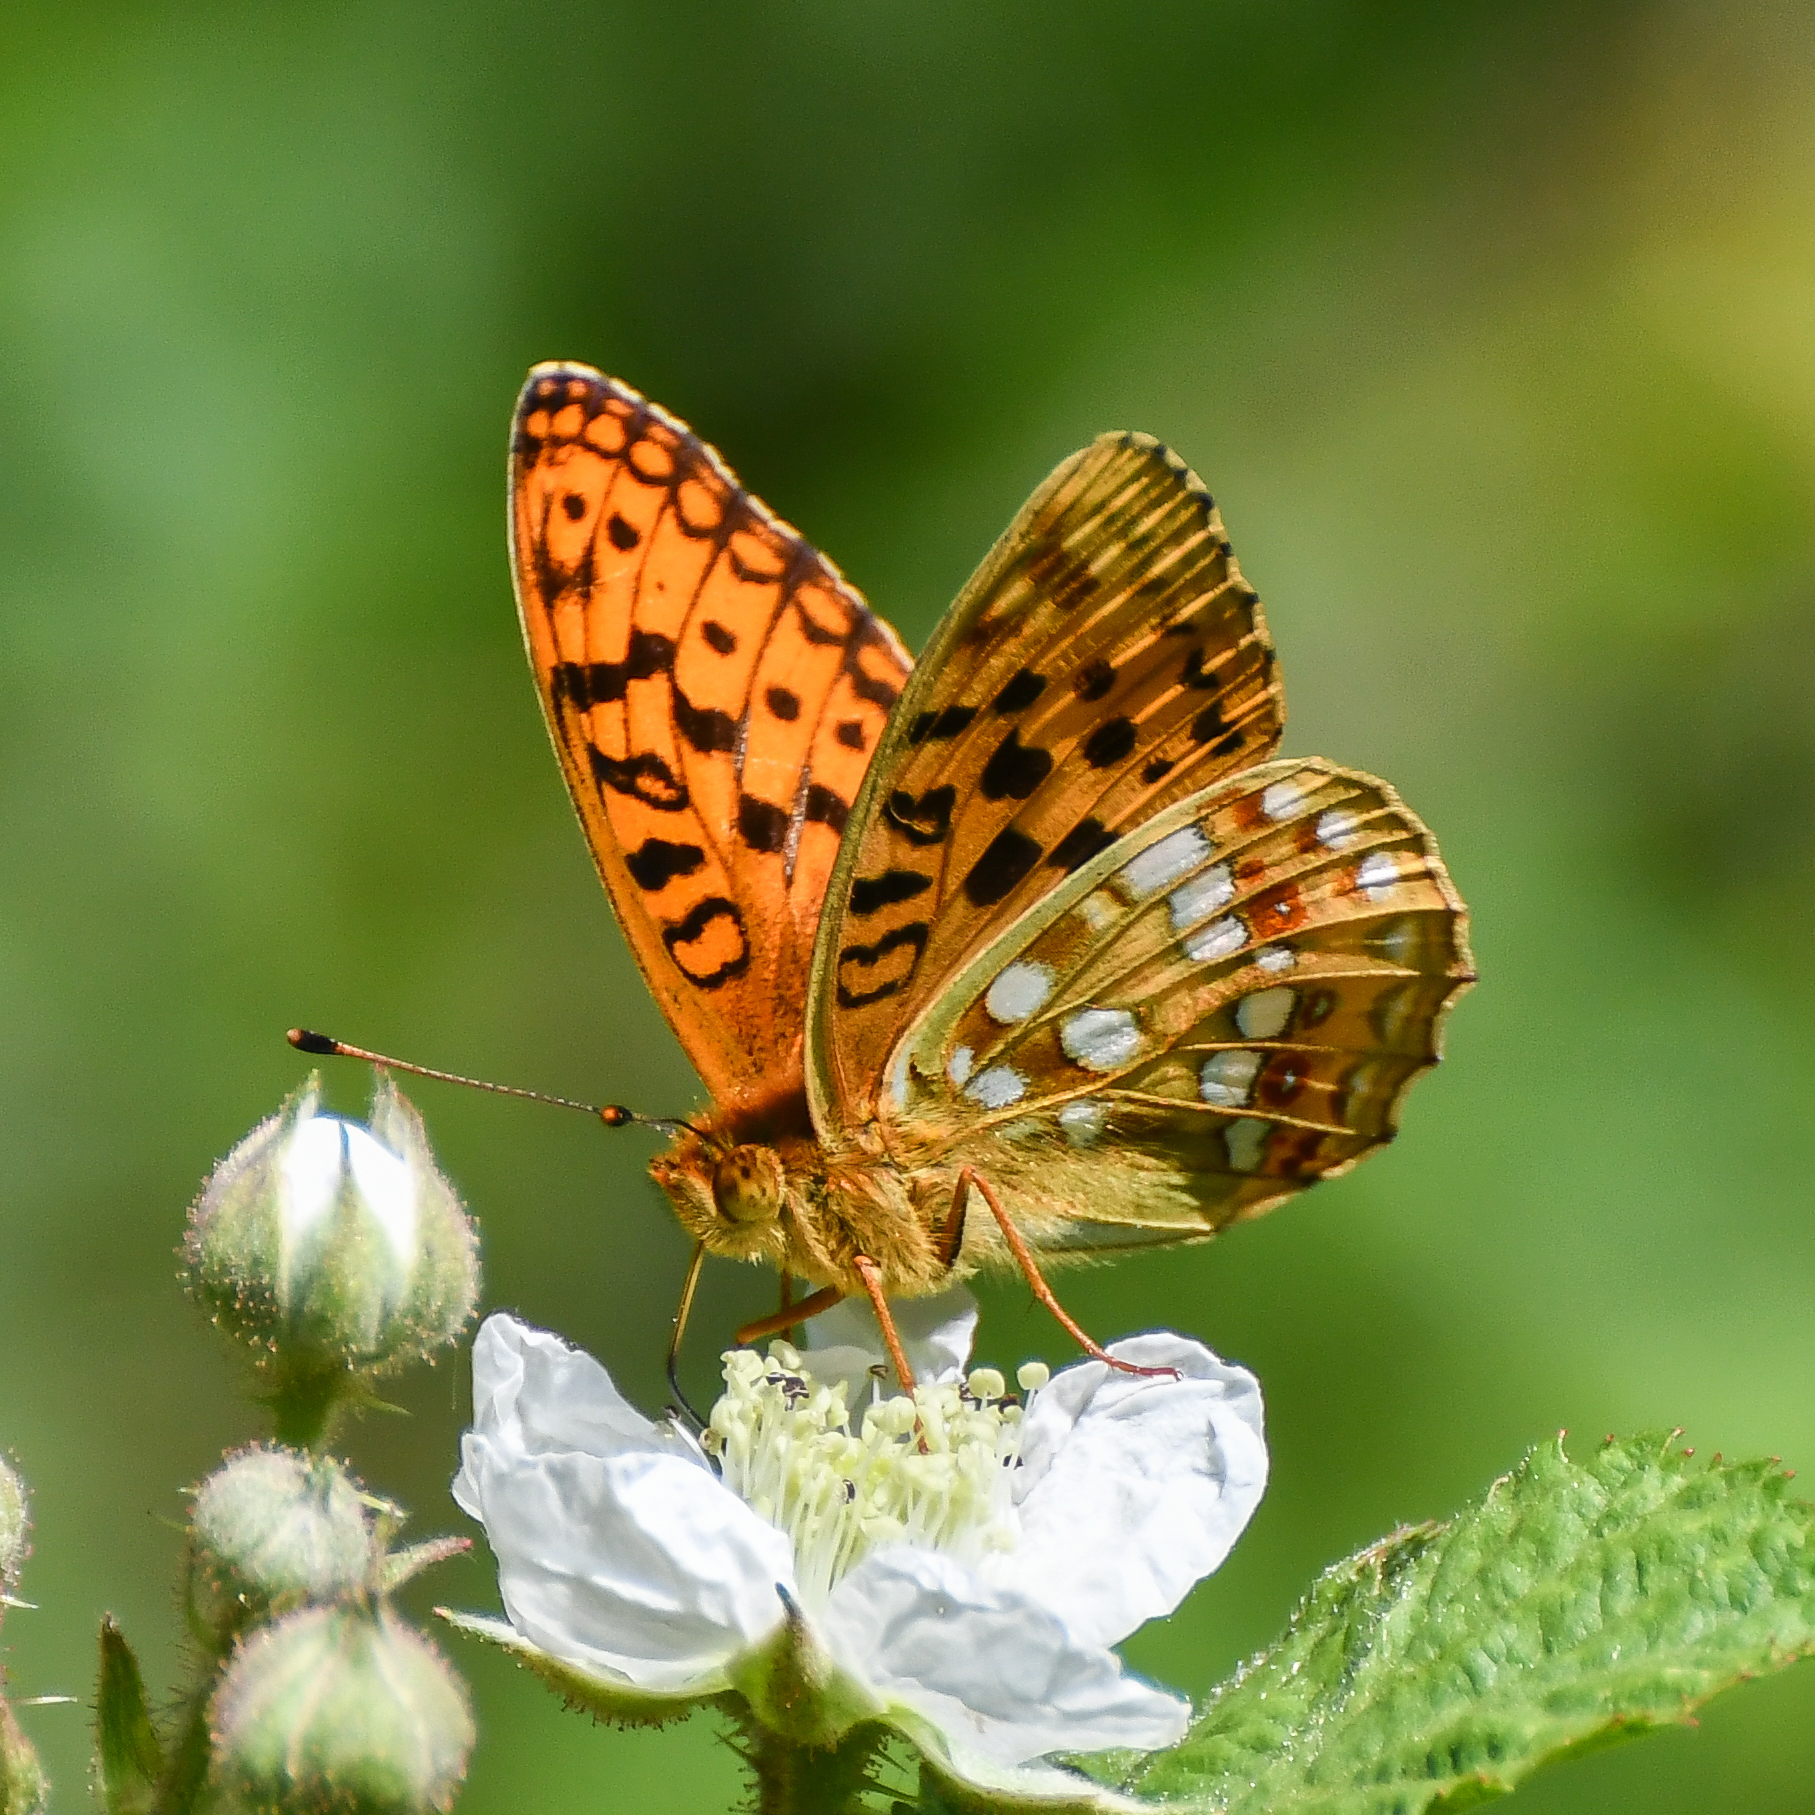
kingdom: Animalia
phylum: Arthropoda
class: Insecta
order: Lepidoptera
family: Nymphalidae
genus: Fabriciana
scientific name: Fabriciana adippe
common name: High brown fritillary
